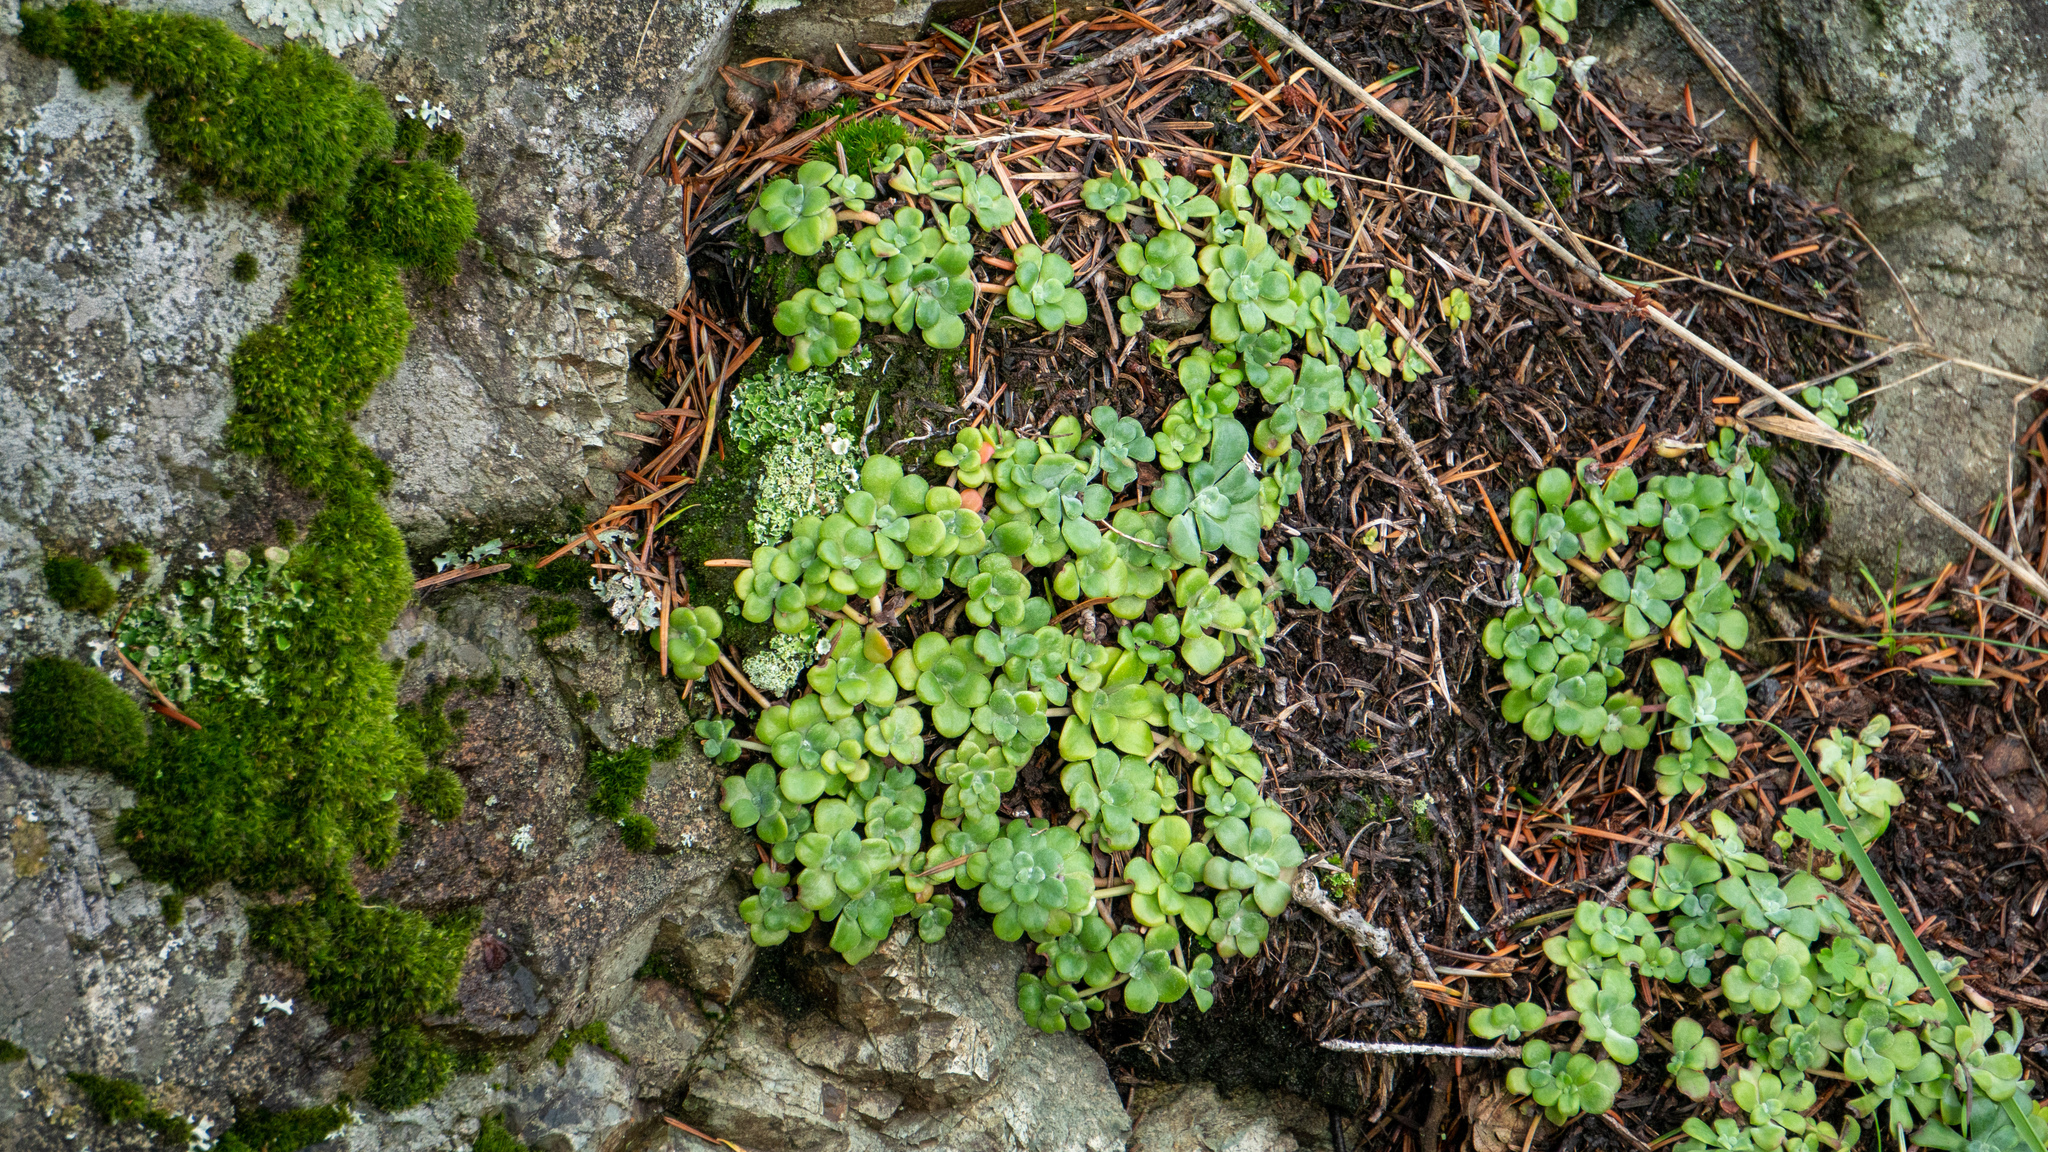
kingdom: Plantae
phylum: Tracheophyta
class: Magnoliopsida
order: Saxifragales
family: Crassulaceae
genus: Sedum
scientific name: Sedum spathulifolium
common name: Colorado stonecrop
